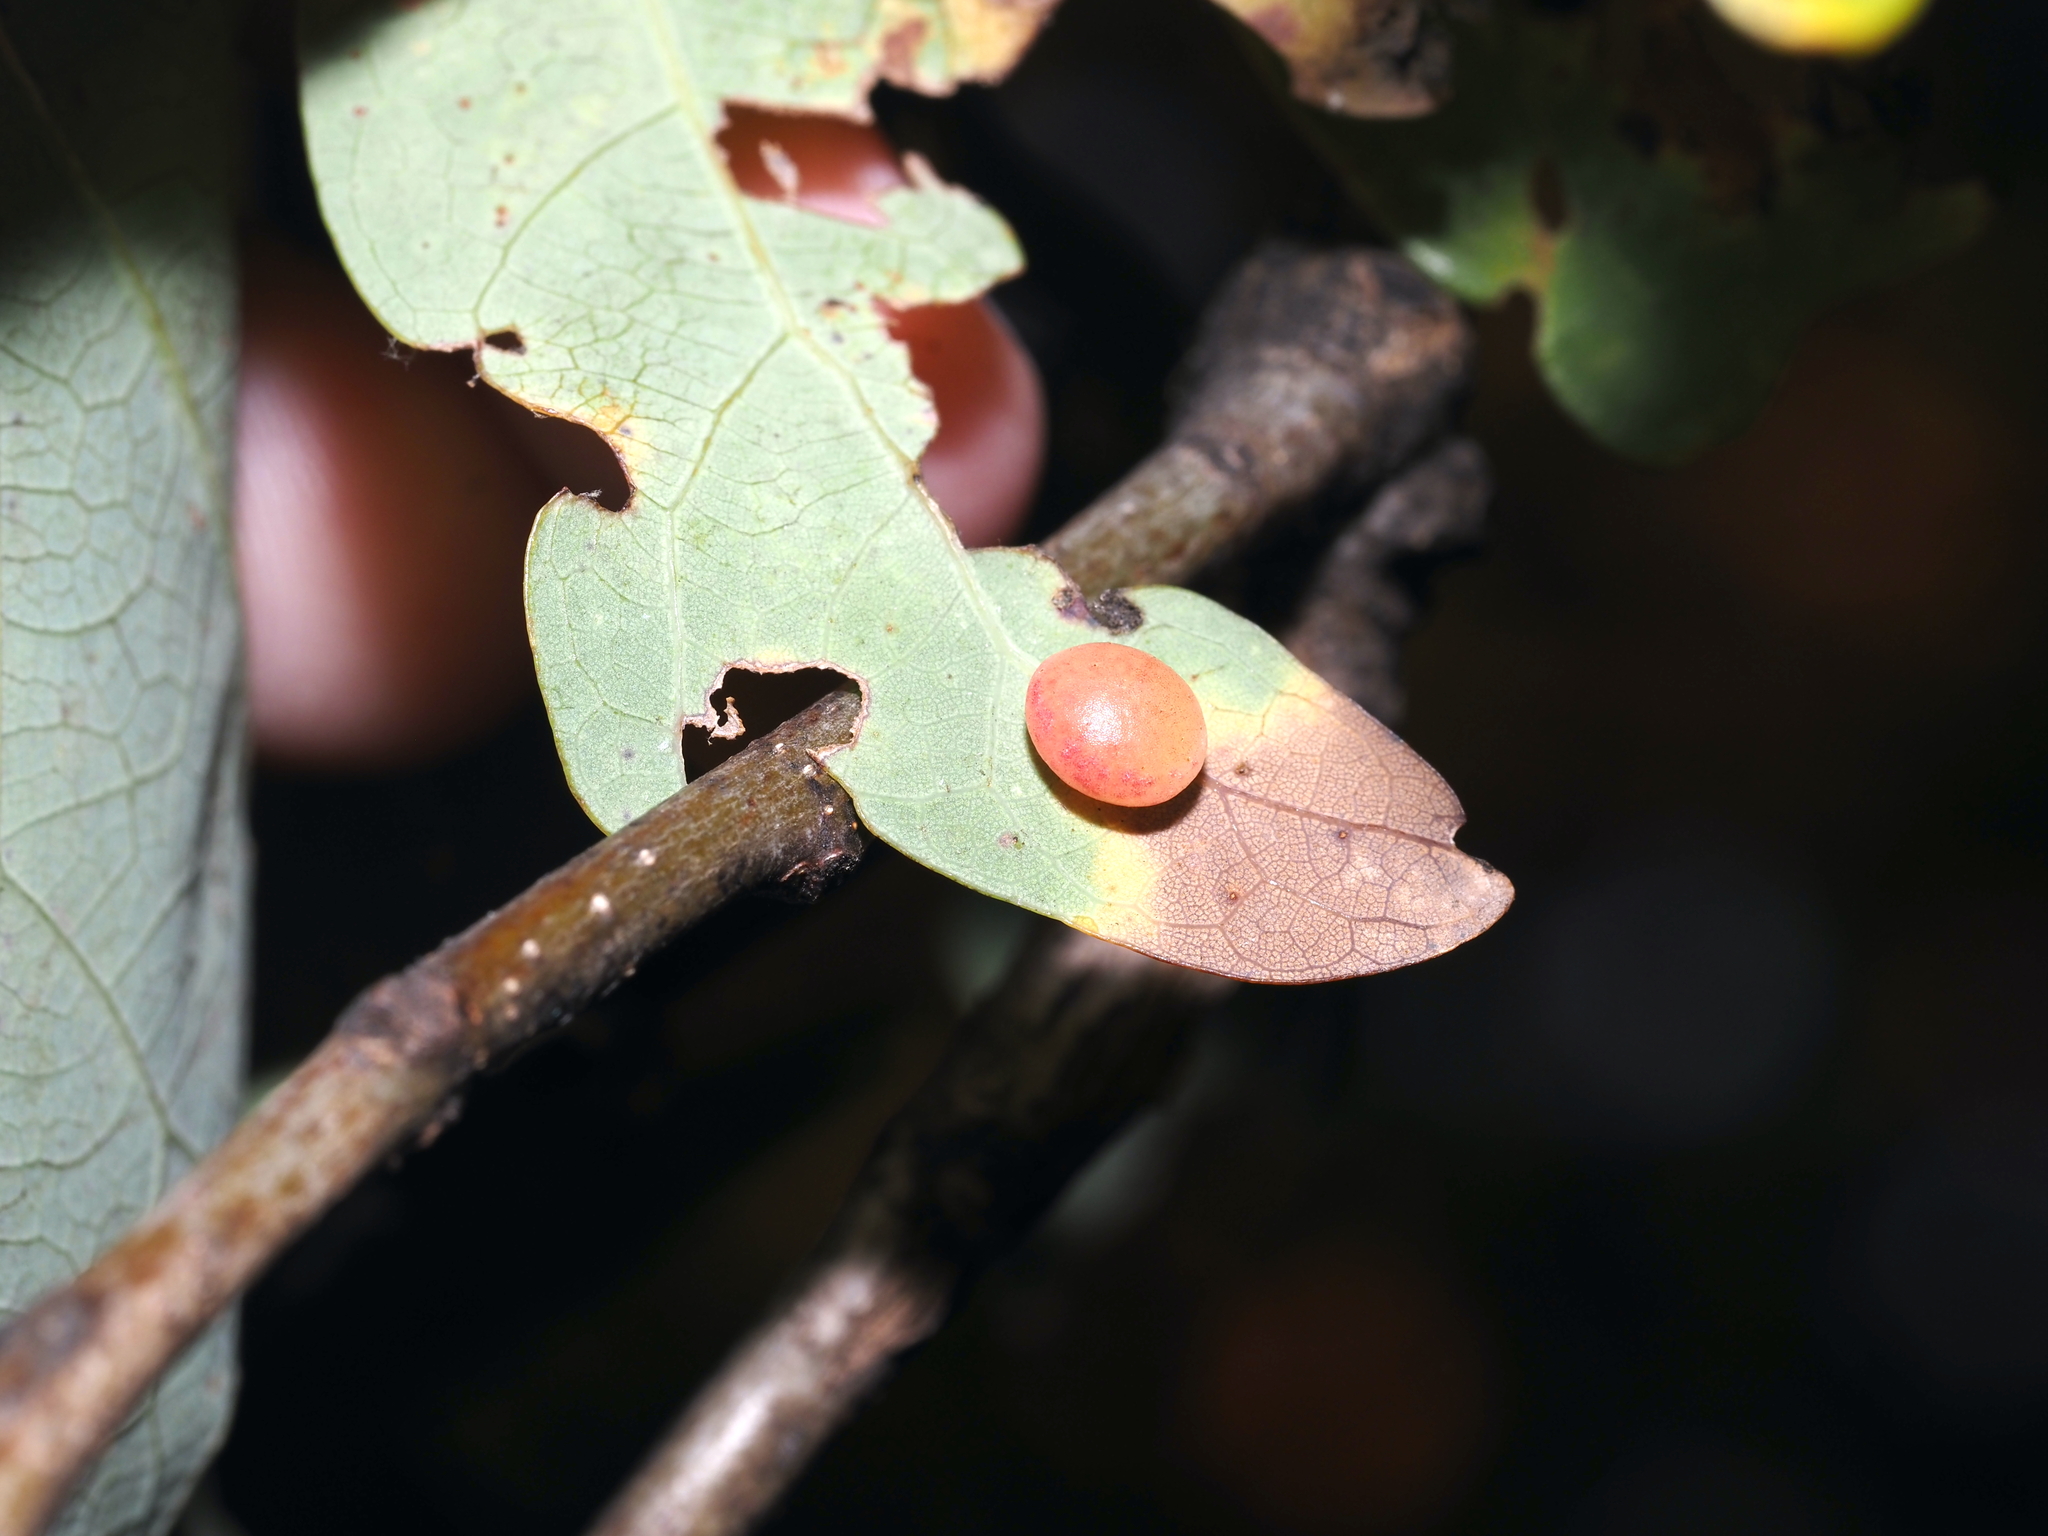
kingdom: Animalia
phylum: Arthropoda
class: Insecta
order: Hymenoptera
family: Cynipidae
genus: Phylloteras
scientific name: Phylloteras
